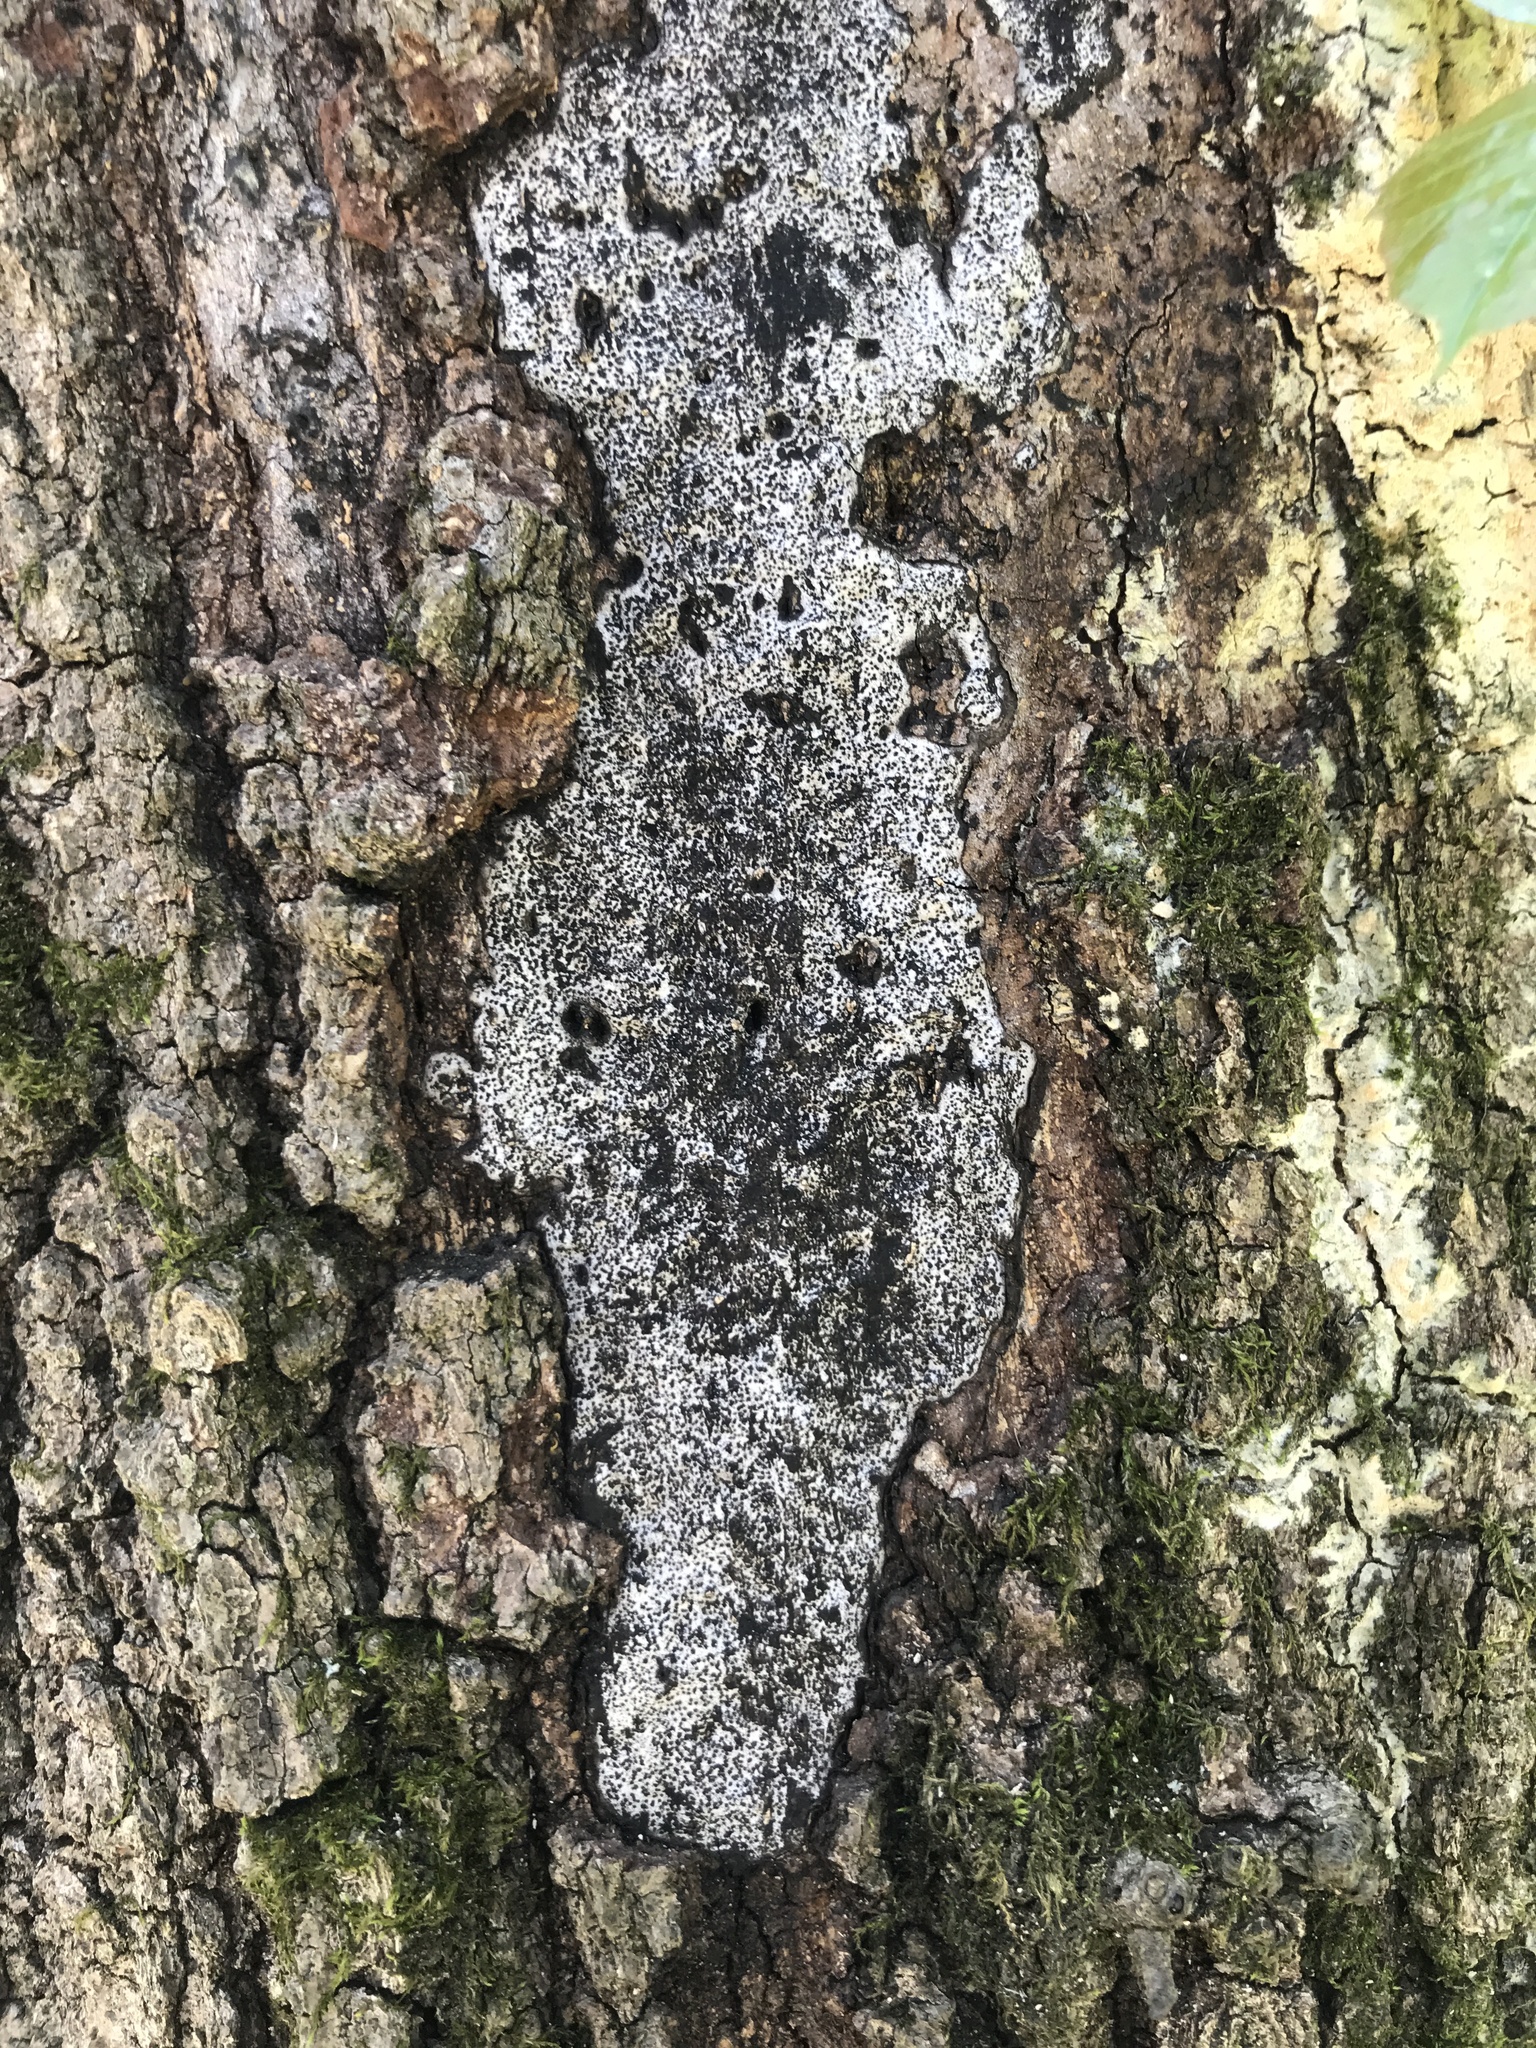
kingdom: Fungi
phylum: Ascomycota
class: Sordariomycetes
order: Xylariales
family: Graphostromataceae
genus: Biscogniauxia
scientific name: Biscogniauxia atropunctata
